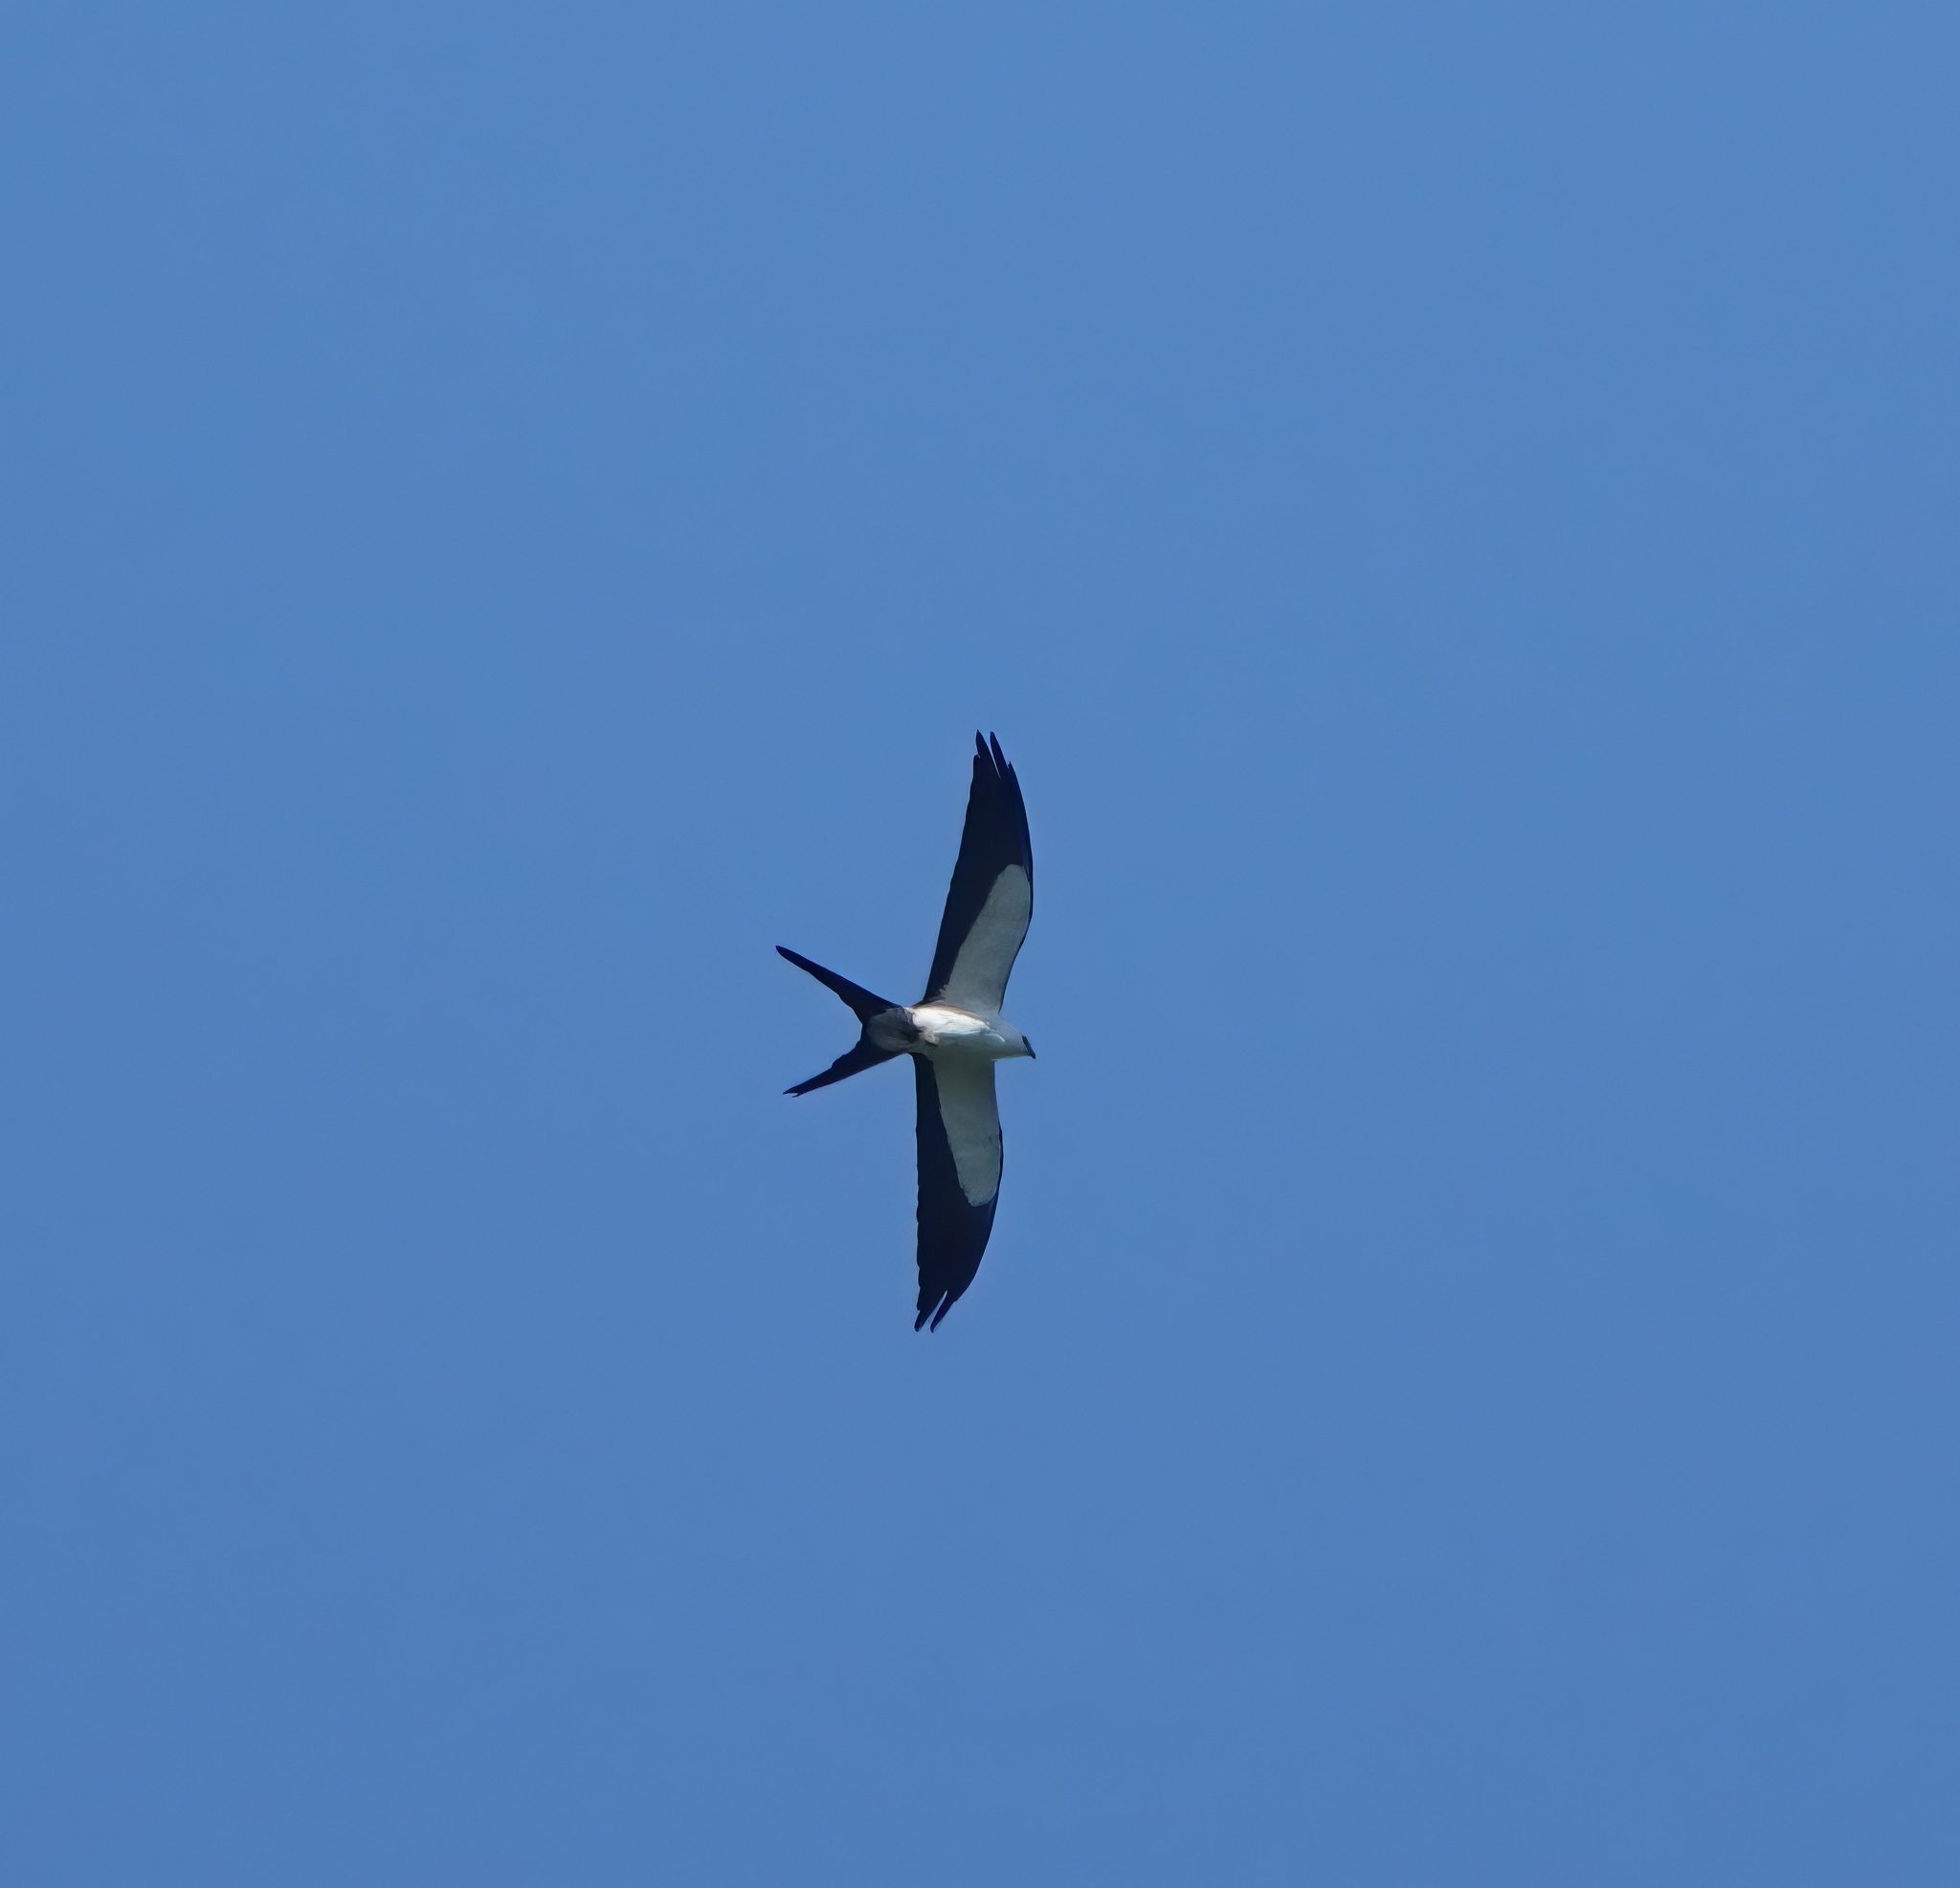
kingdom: Animalia
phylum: Chordata
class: Aves
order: Accipitriformes
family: Accipitridae
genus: Elanoides
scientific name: Elanoides forficatus
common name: Swallow-tailed kite
